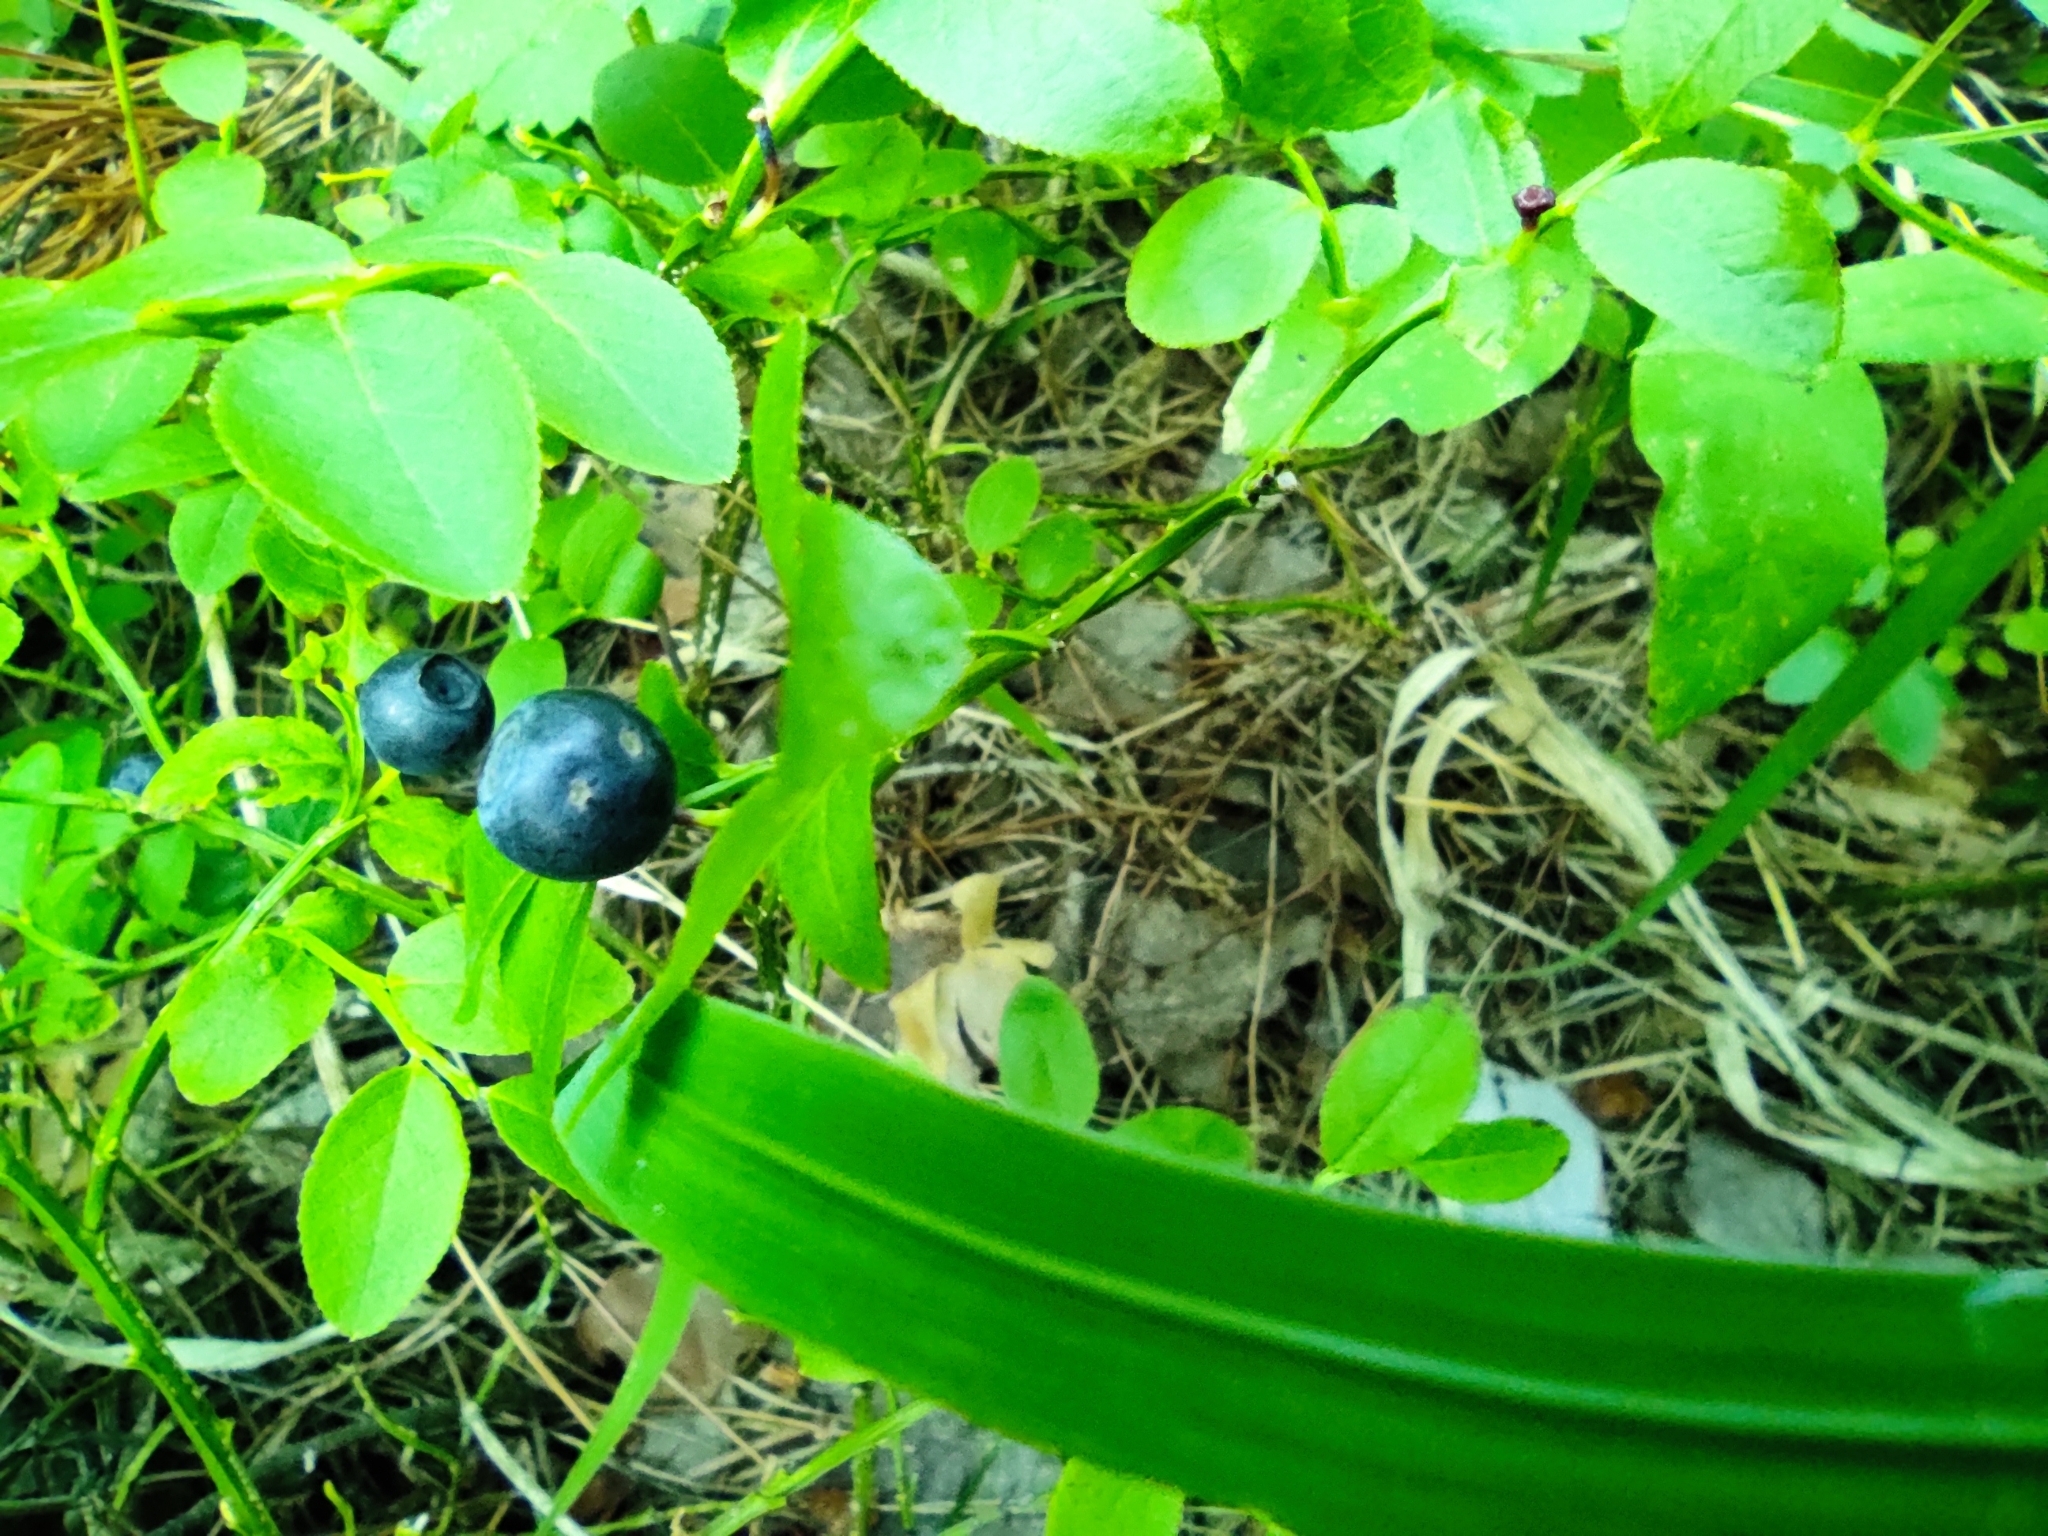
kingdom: Plantae
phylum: Tracheophyta
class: Magnoliopsida
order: Ericales
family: Ericaceae
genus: Vaccinium
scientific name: Vaccinium myrtillus
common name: Bilberry
